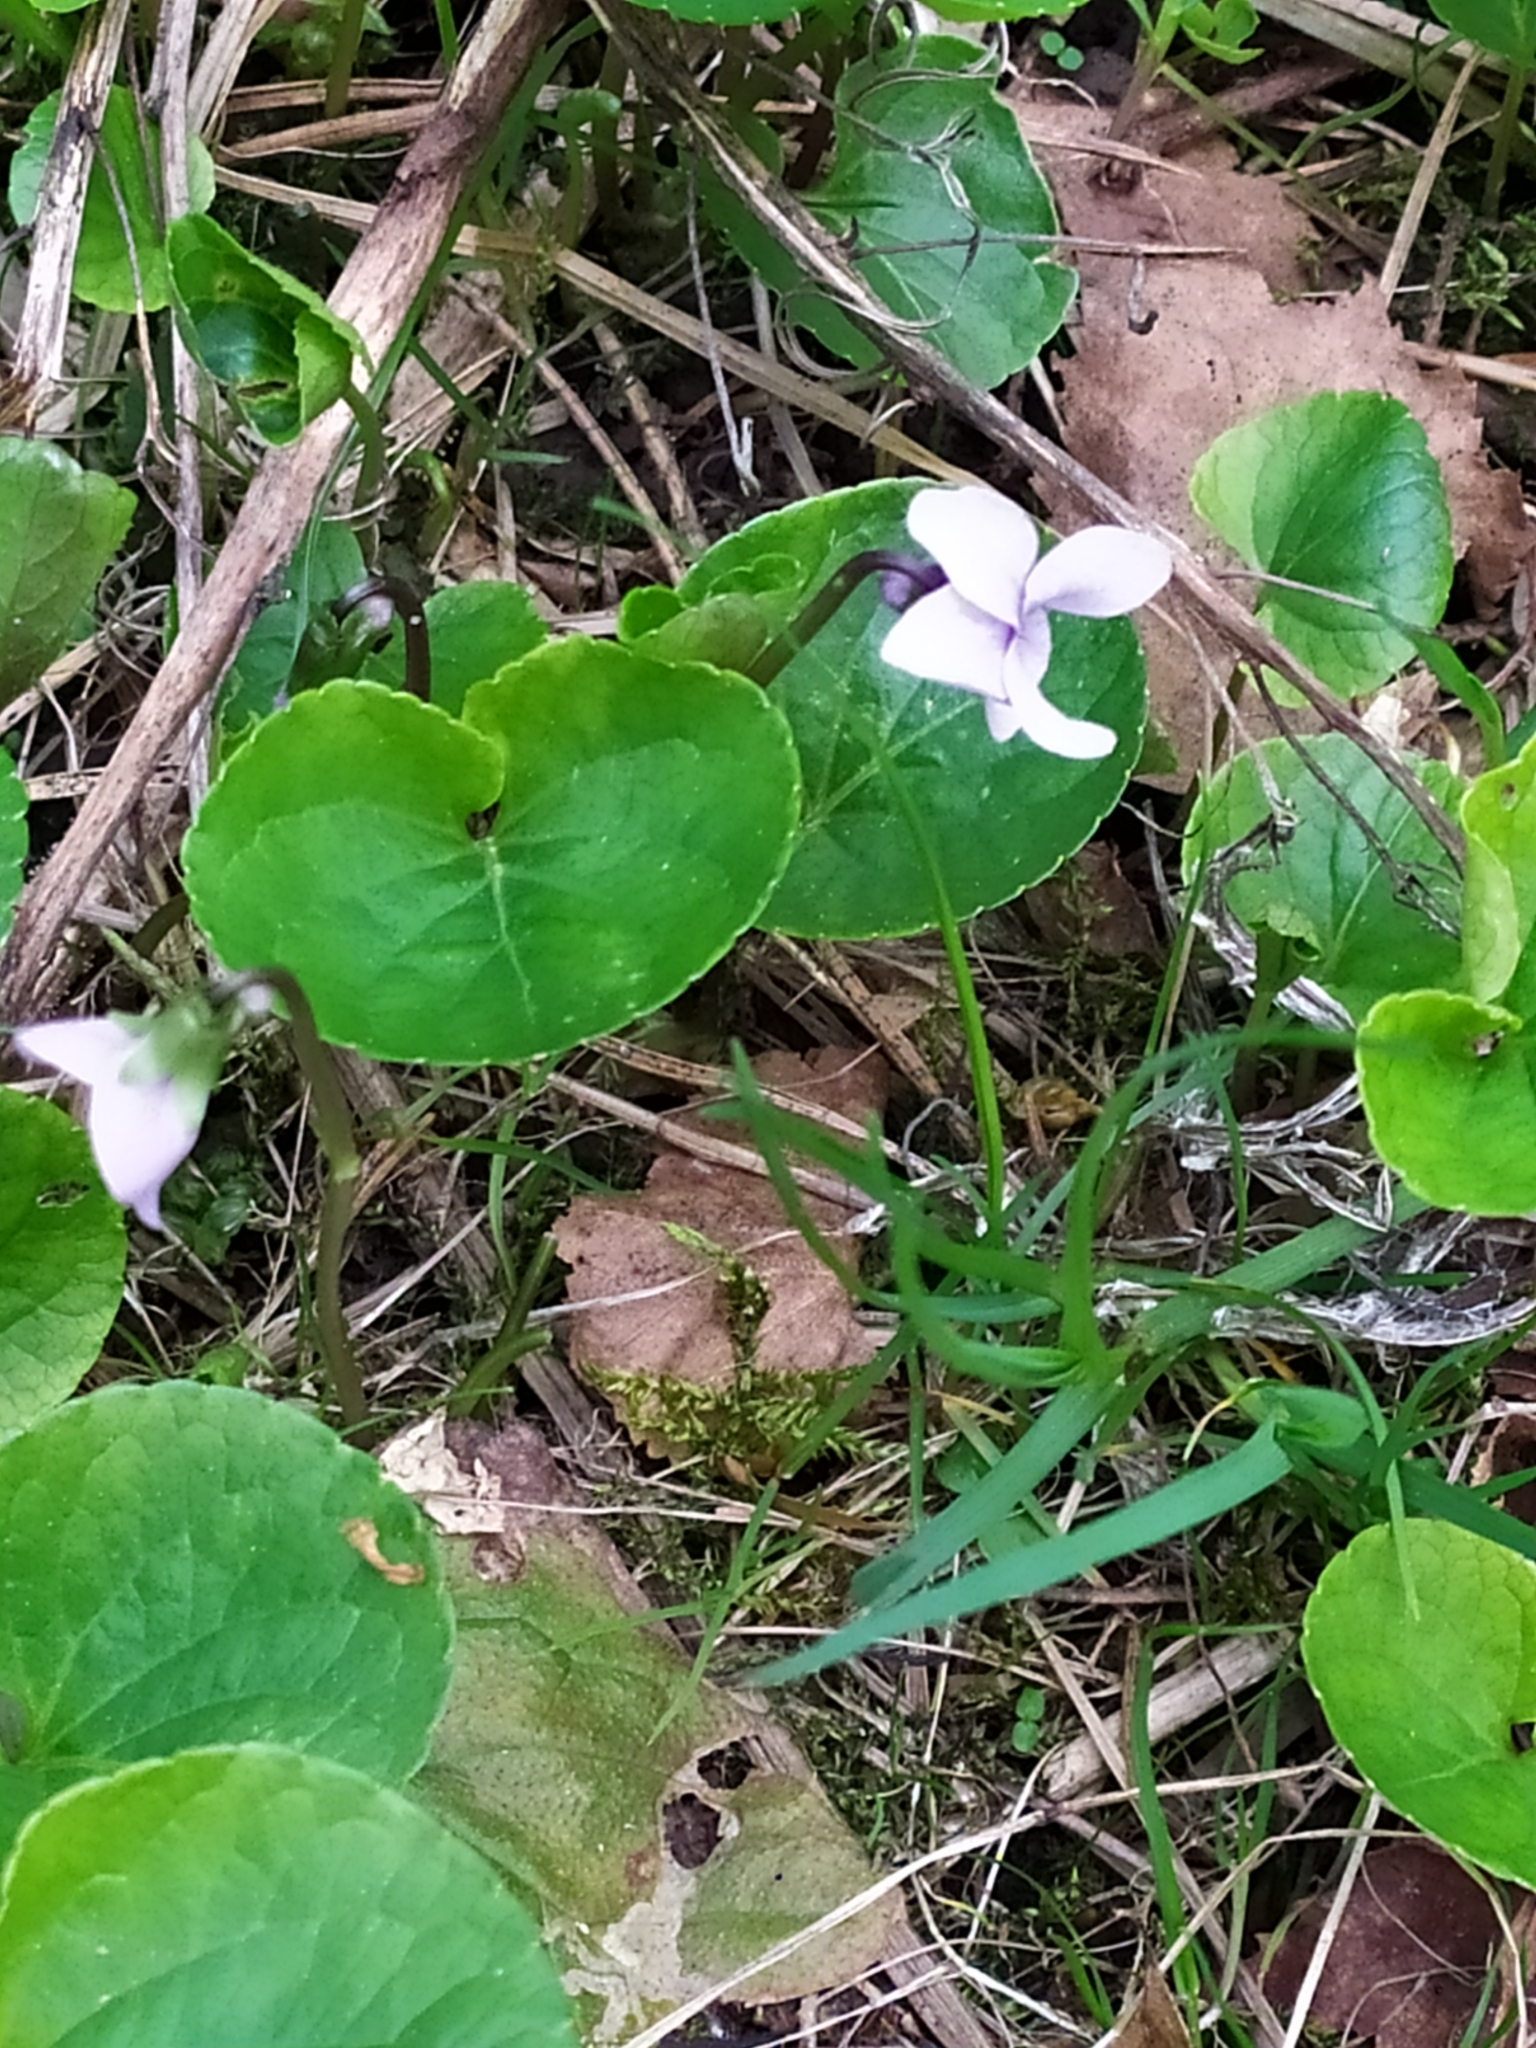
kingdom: Plantae
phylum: Tracheophyta
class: Magnoliopsida
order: Malpighiales
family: Violaceae
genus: Viola
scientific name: Viola palustris
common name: Marsh violet
